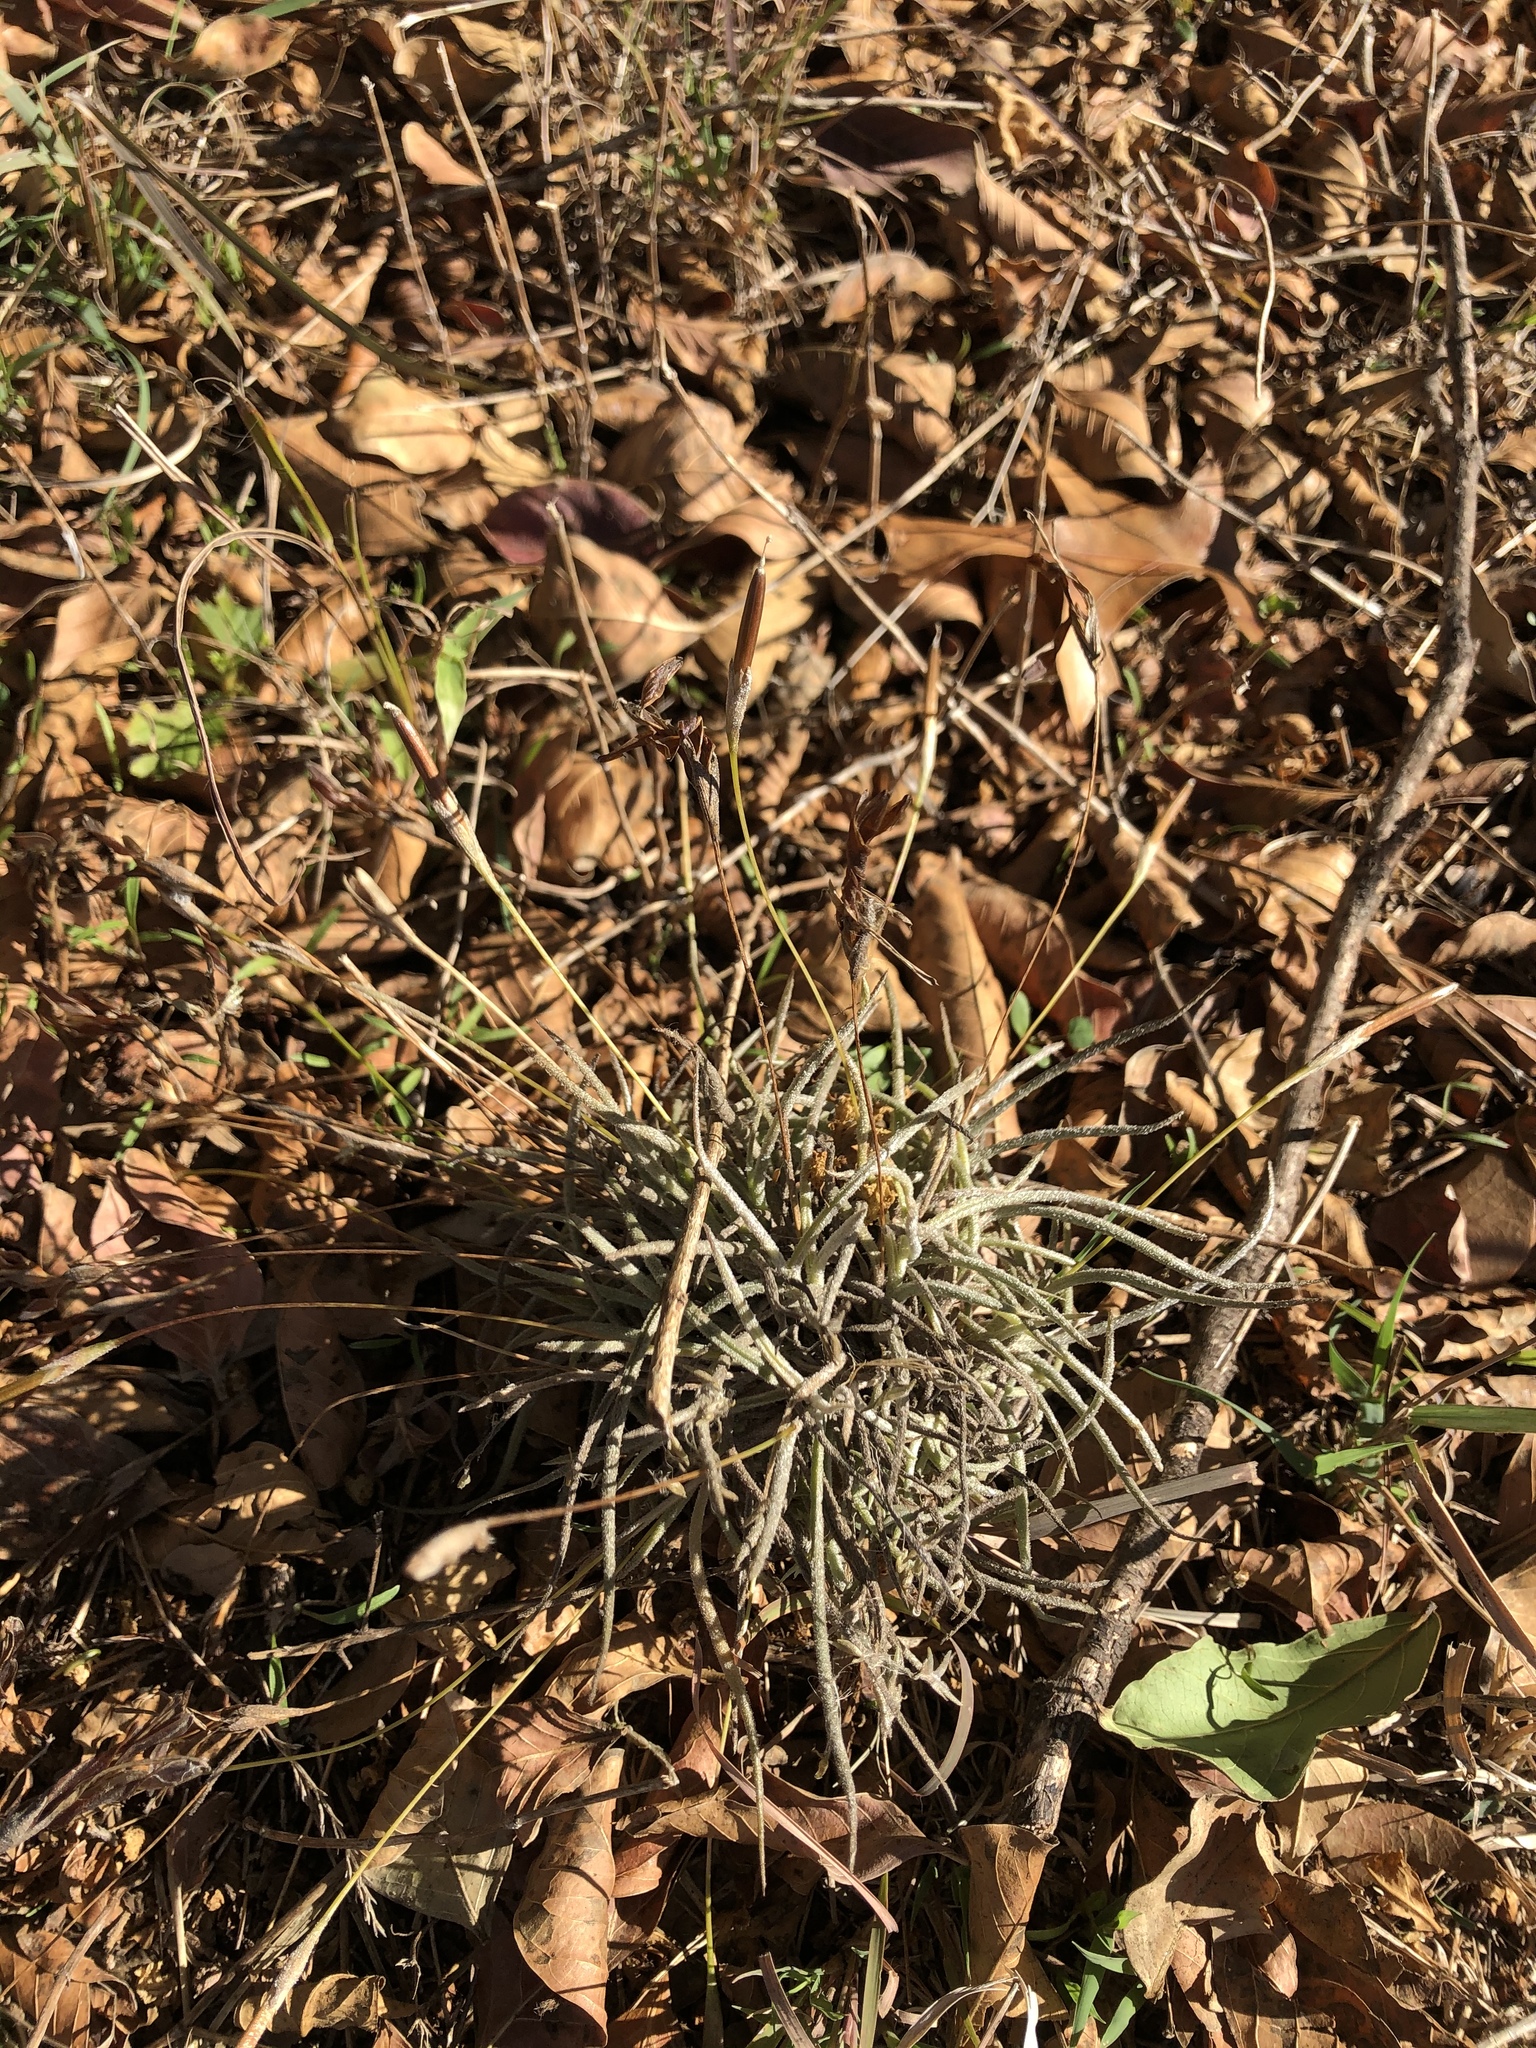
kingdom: Plantae
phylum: Tracheophyta
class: Liliopsida
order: Poales
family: Bromeliaceae
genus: Tillandsia
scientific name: Tillandsia recurvata
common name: Small ballmoss
